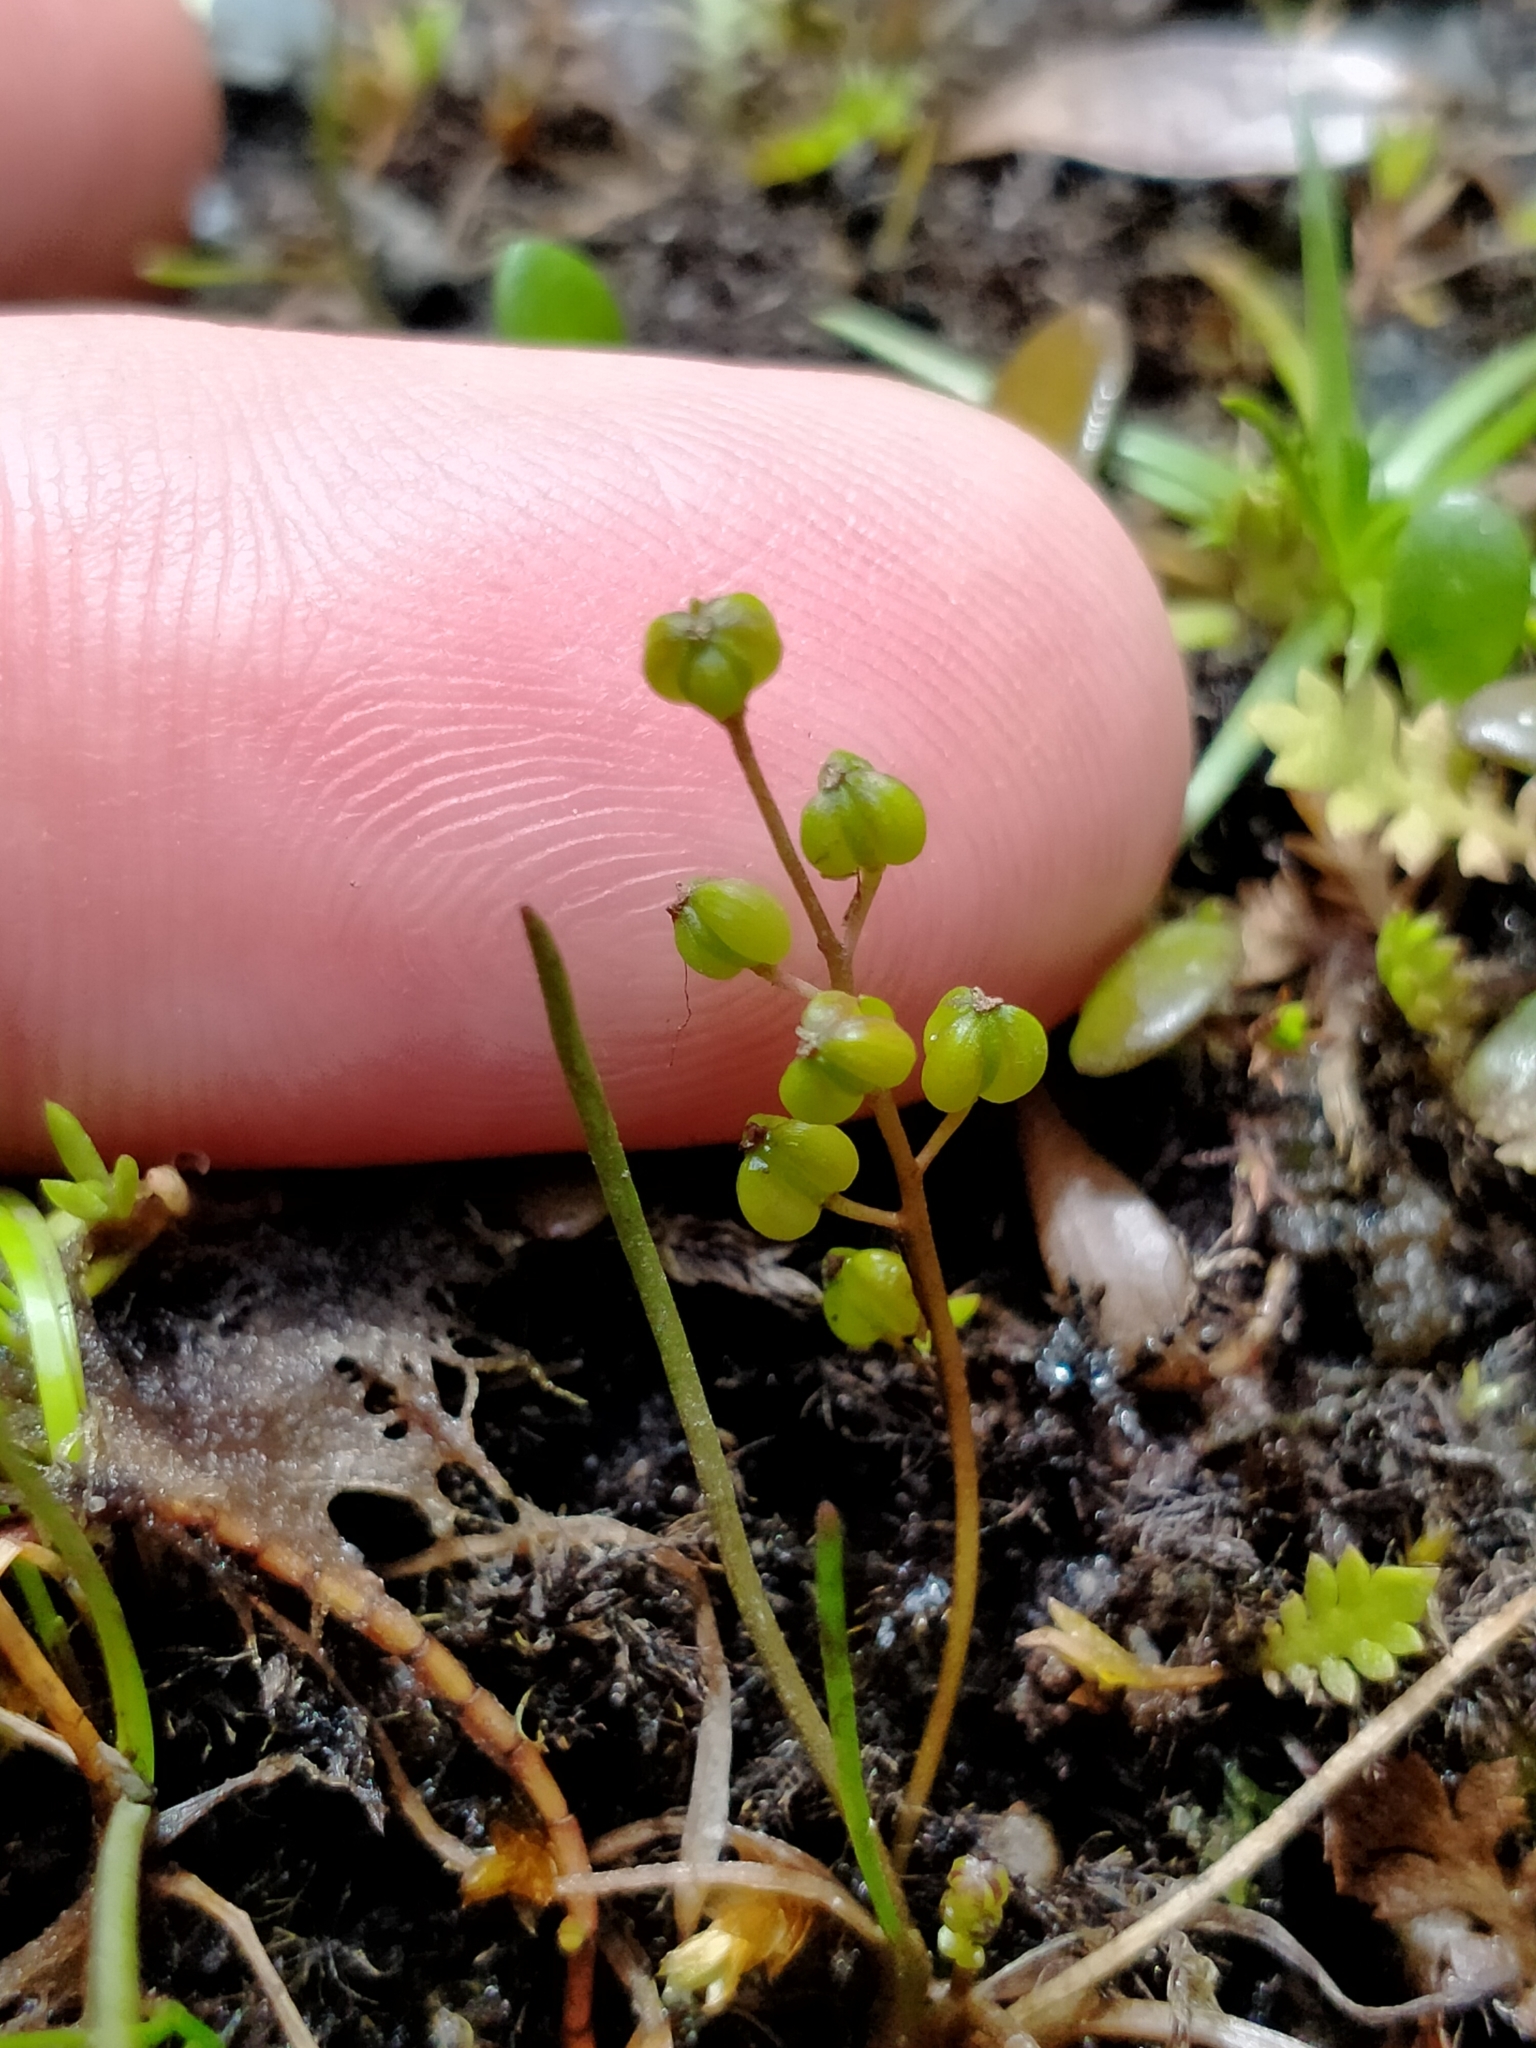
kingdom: Plantae
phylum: Tracheophyta
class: Liliopsida
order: Alismatales
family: Juncaginaceae
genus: Triglochin
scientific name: Triglochin striata
